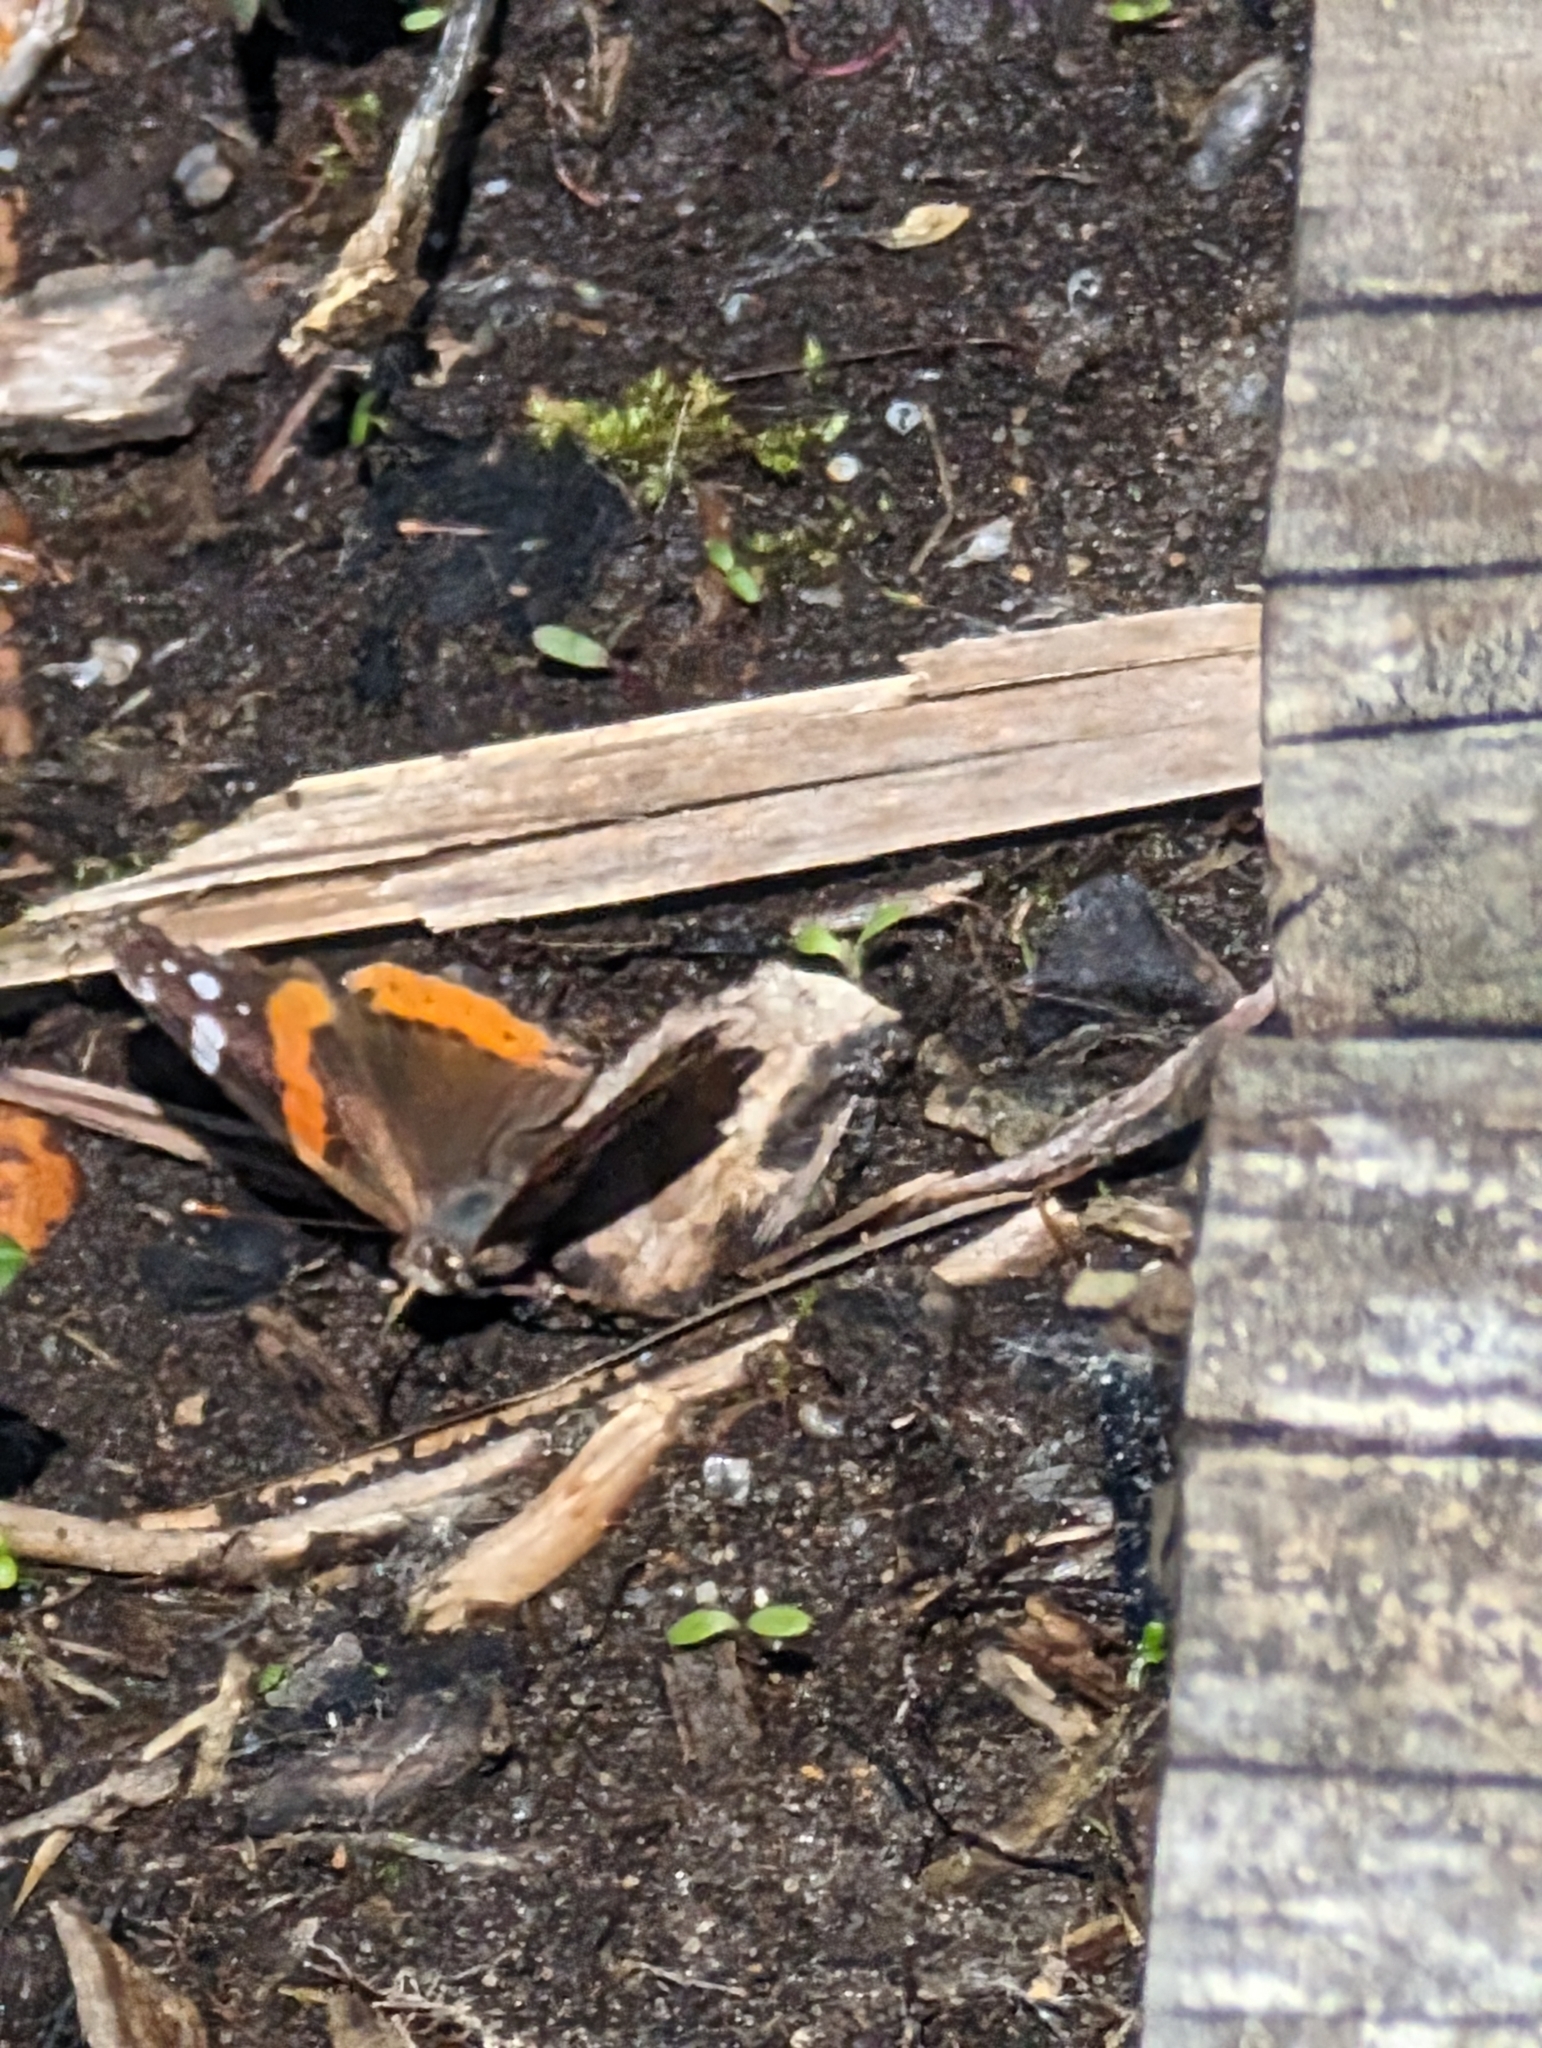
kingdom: Animalia
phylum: Arthropoda
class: Insecta
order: Lepidoptera
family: Nymphalidae
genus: Vanessa
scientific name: Vanessa atalanta
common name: Red admiral
